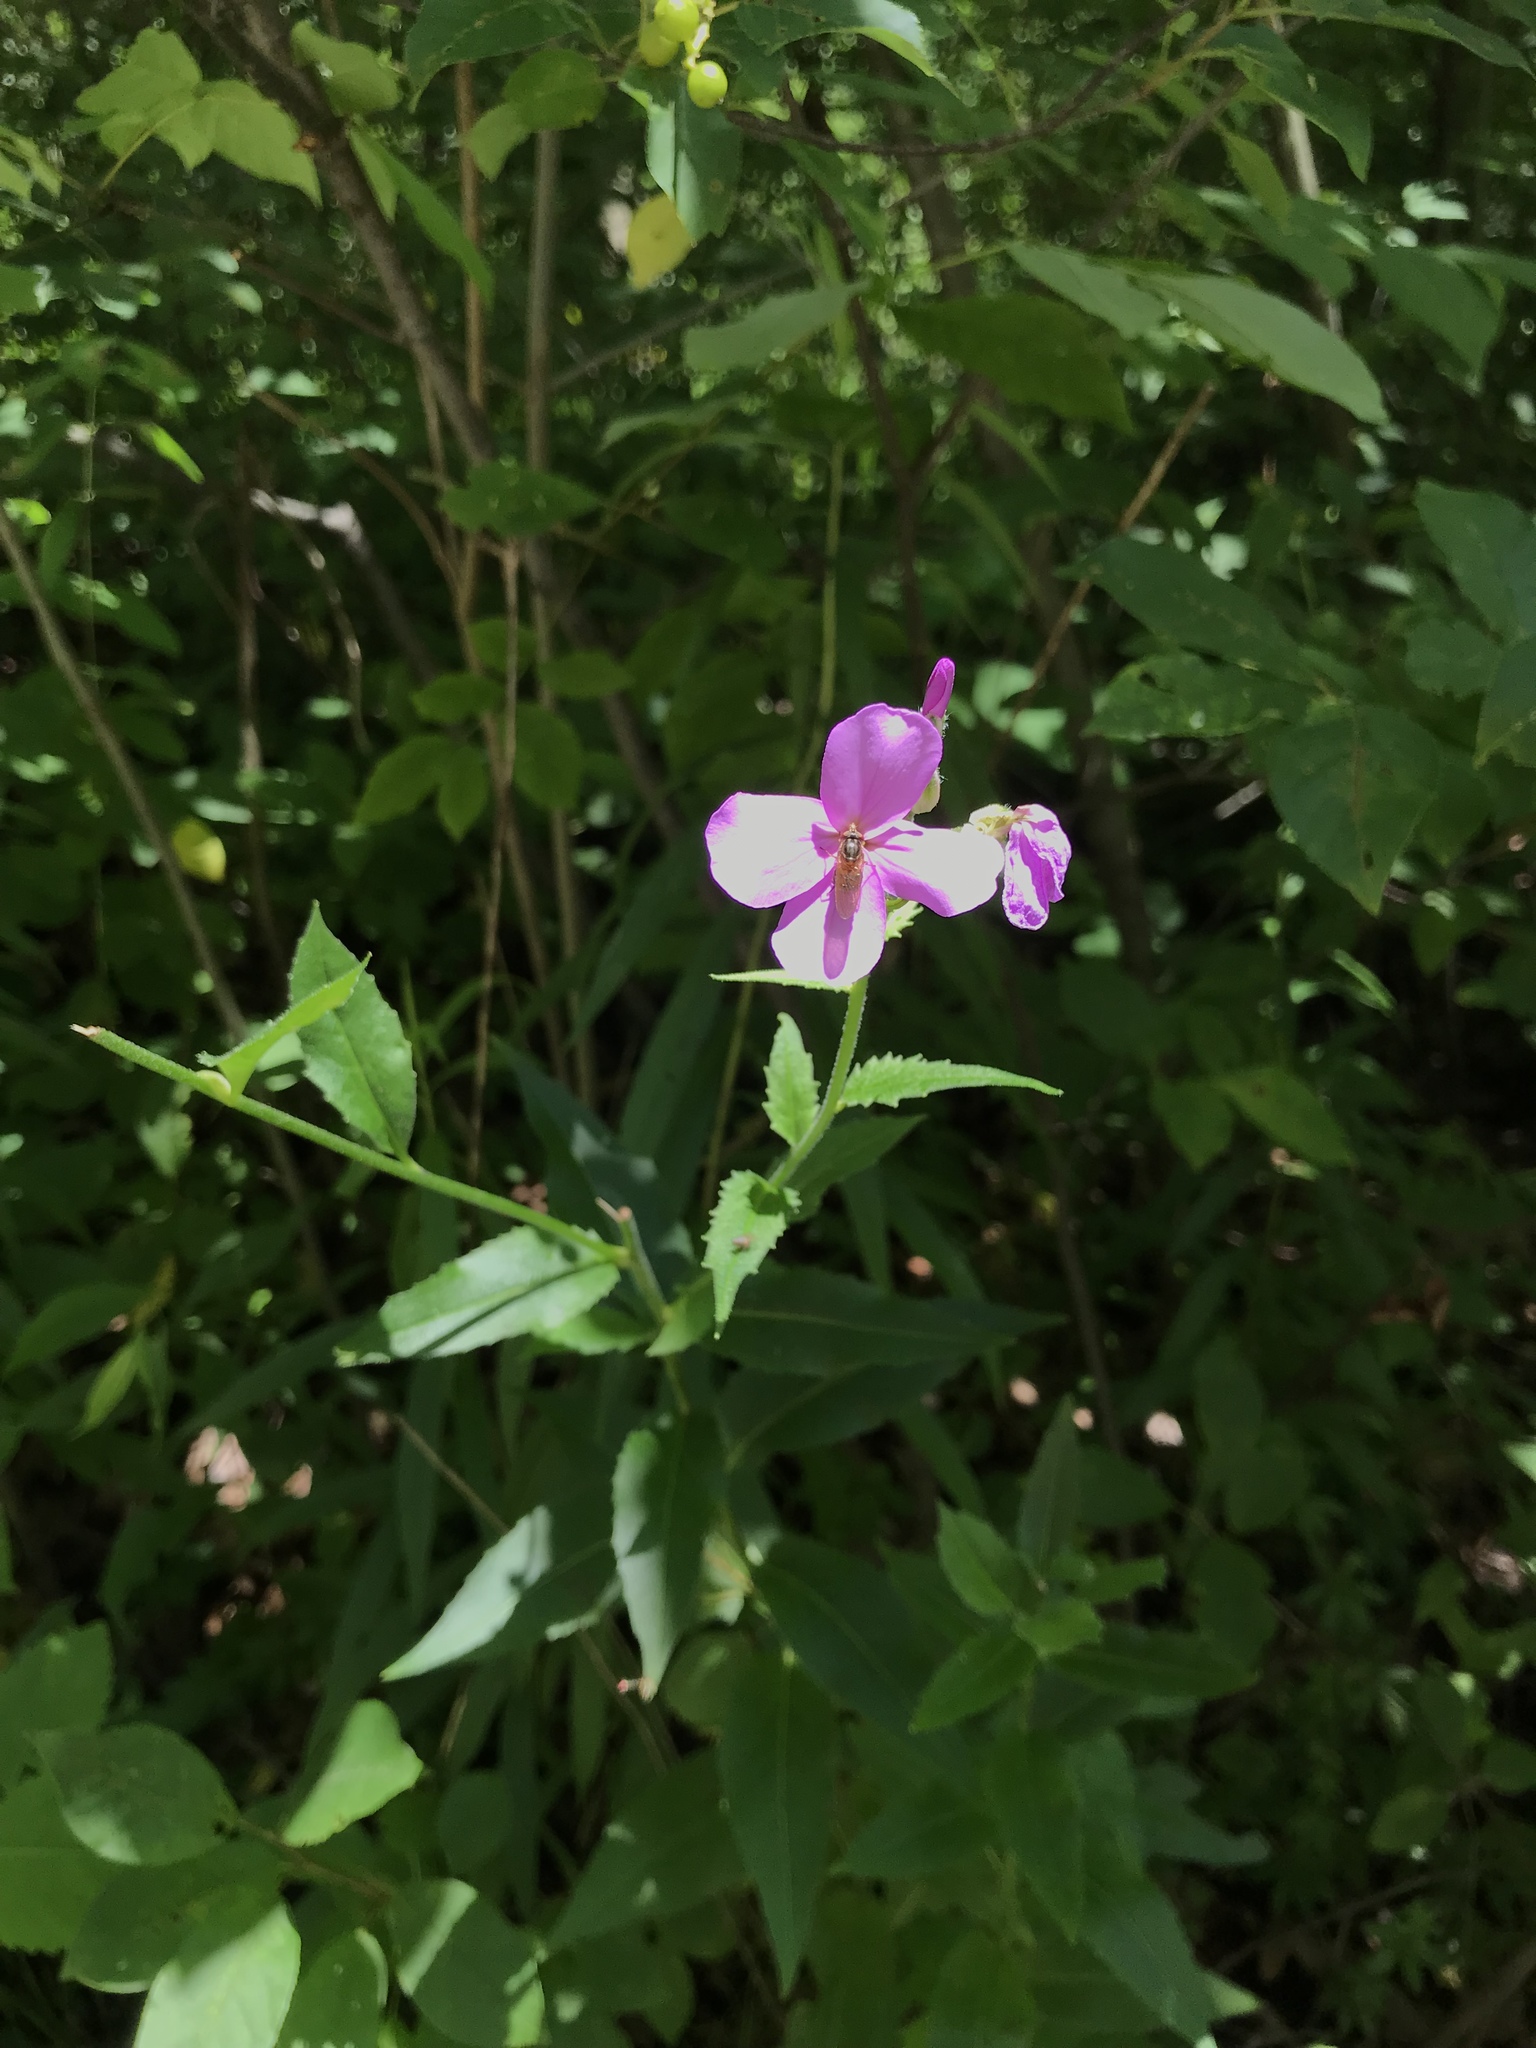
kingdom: Plantae
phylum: Tracheophyta
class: Magnoliopsida
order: Brassicales
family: Brassicaceae
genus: Hesperis
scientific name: Hesperis matronalis
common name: Dame's-violet
